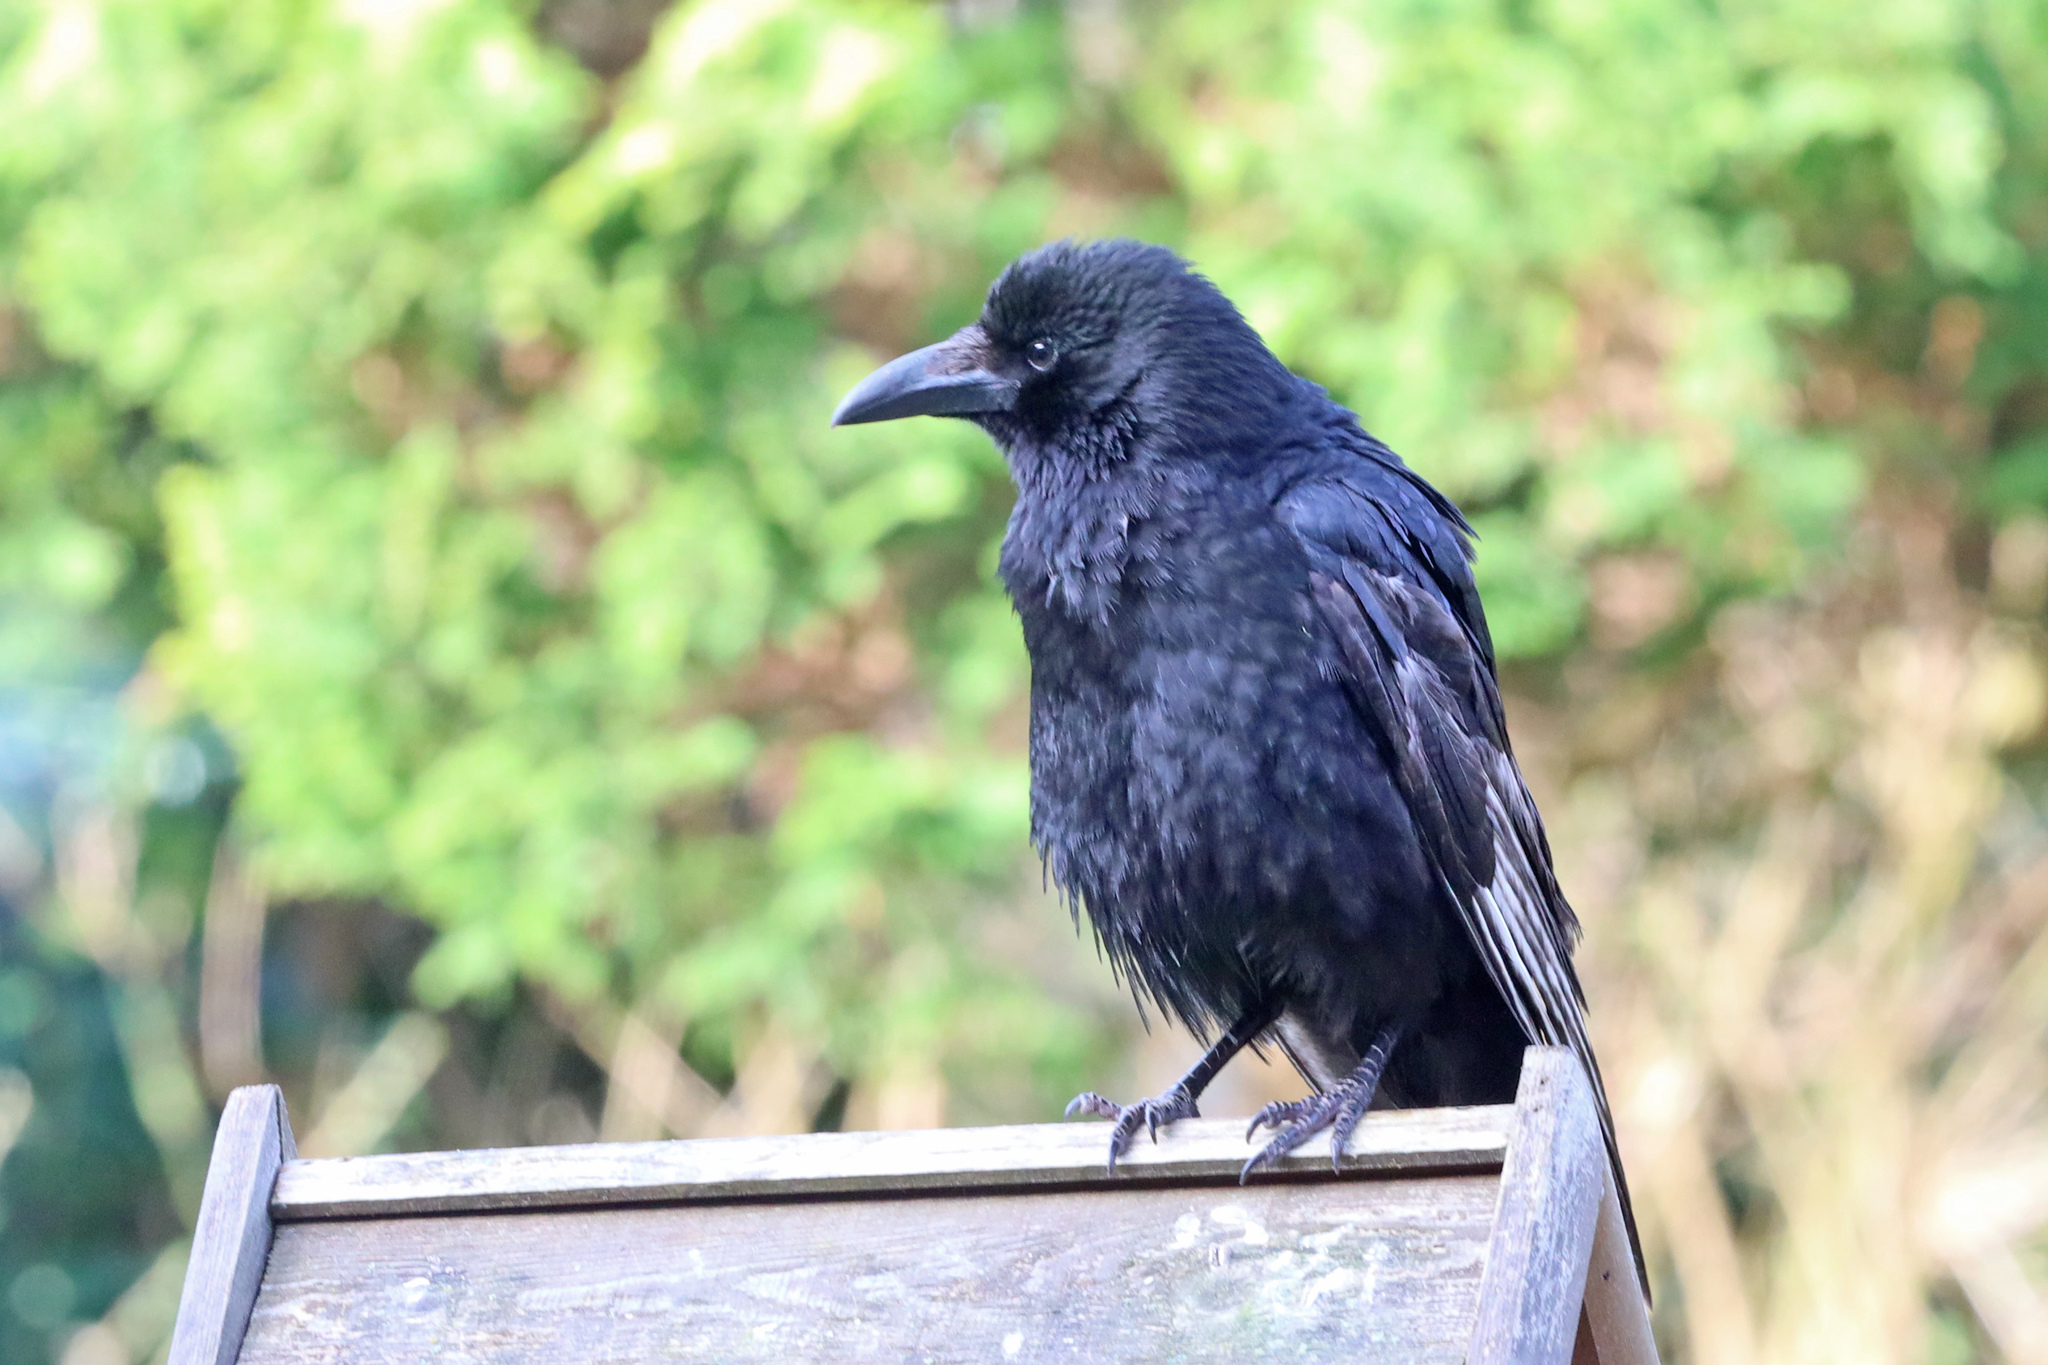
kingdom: Animalia
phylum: Chordata
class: Aves
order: Passeriformes
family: Corvidae
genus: Corvus
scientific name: Corvus corone
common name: Carrion crow
